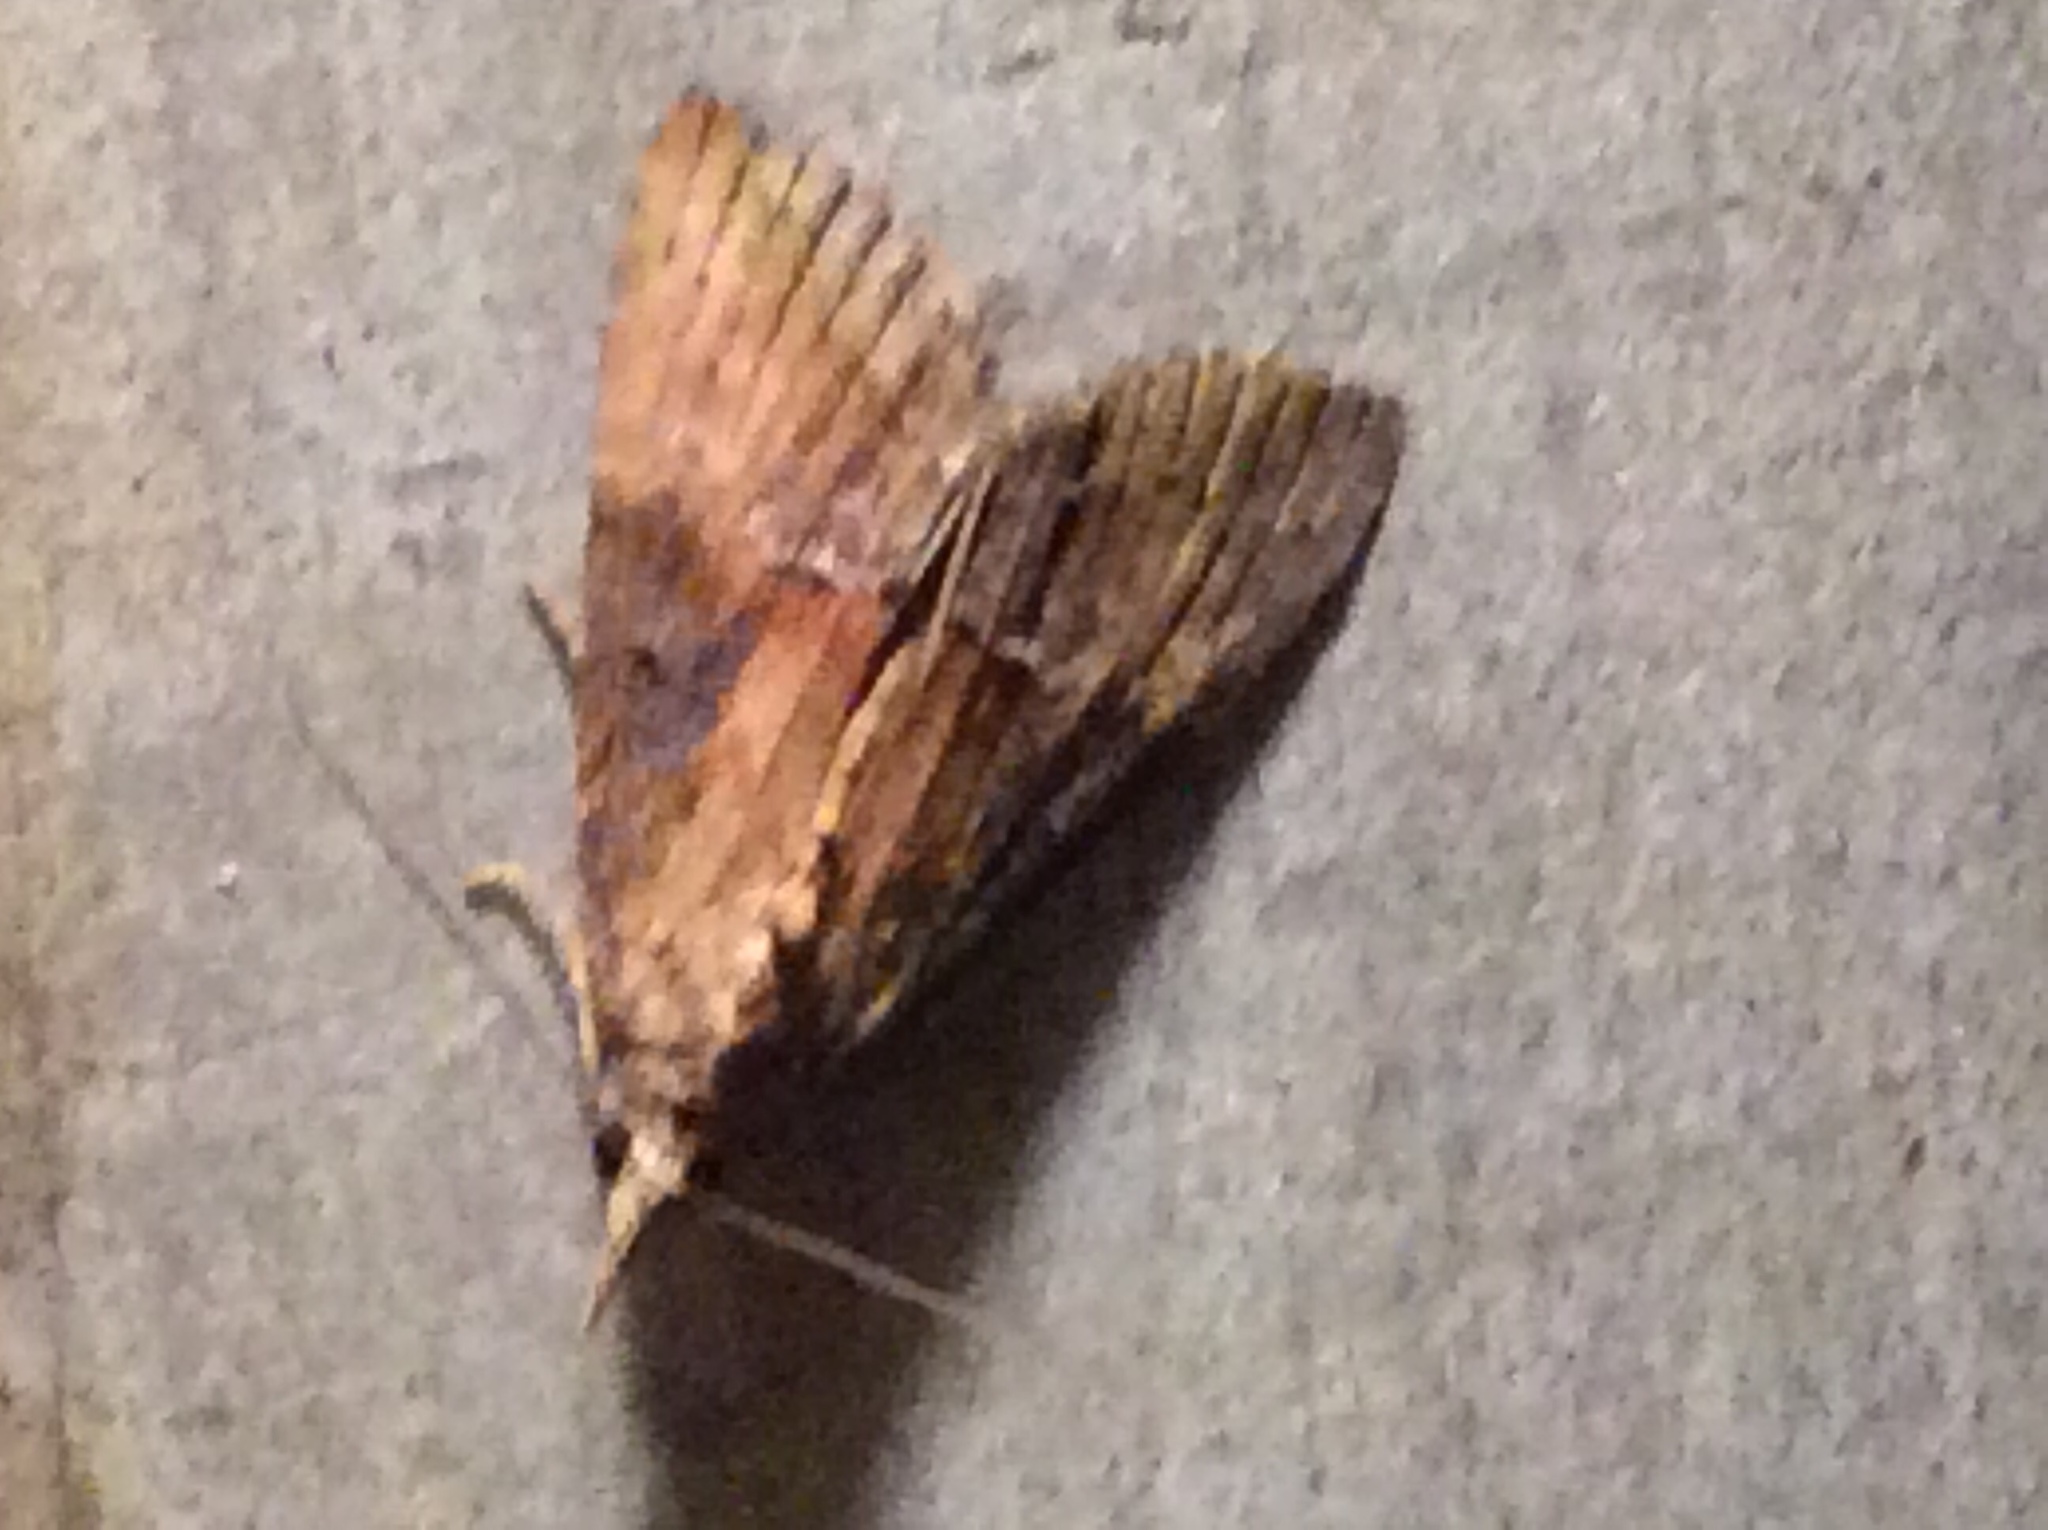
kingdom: Animalia
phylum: Arthropoda
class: Insecta
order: Lepidoptera
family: Erebidae
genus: Hypena
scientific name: Hypena scabra
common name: Green cloverworm
